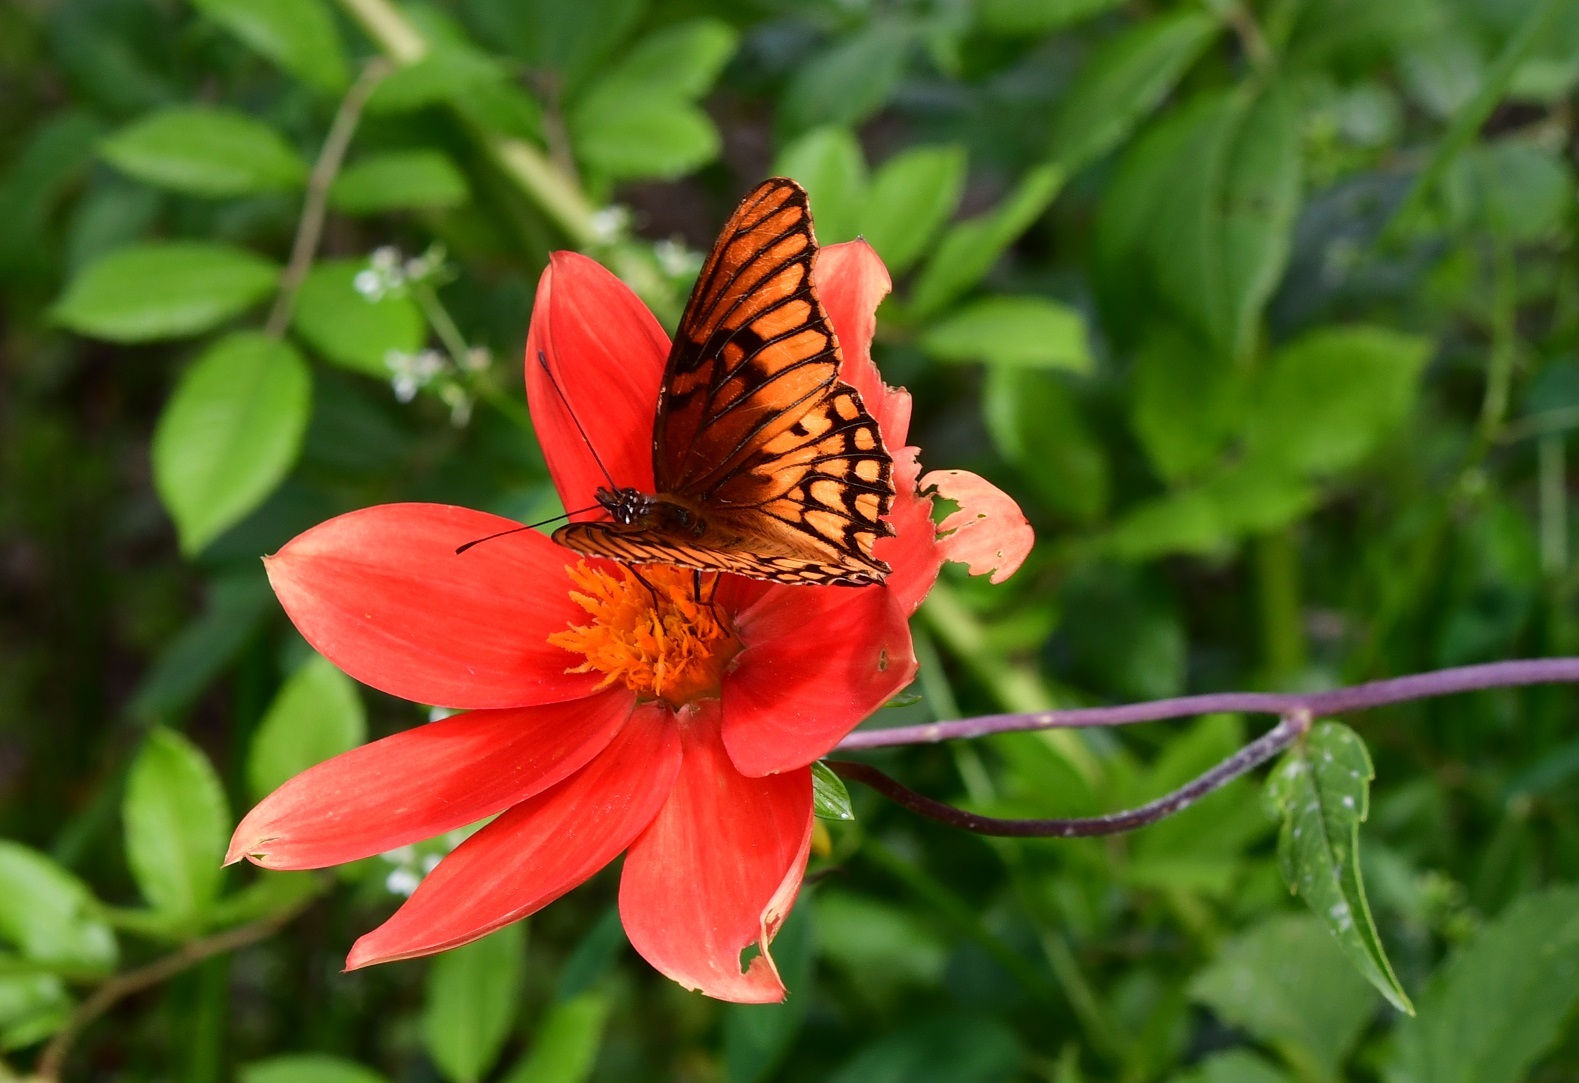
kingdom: Animalia
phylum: Arthropoda
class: Insecta
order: Lepidoptera
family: Nymphalidae
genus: Dione
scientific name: Dione moneta
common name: Mexican silverspot
